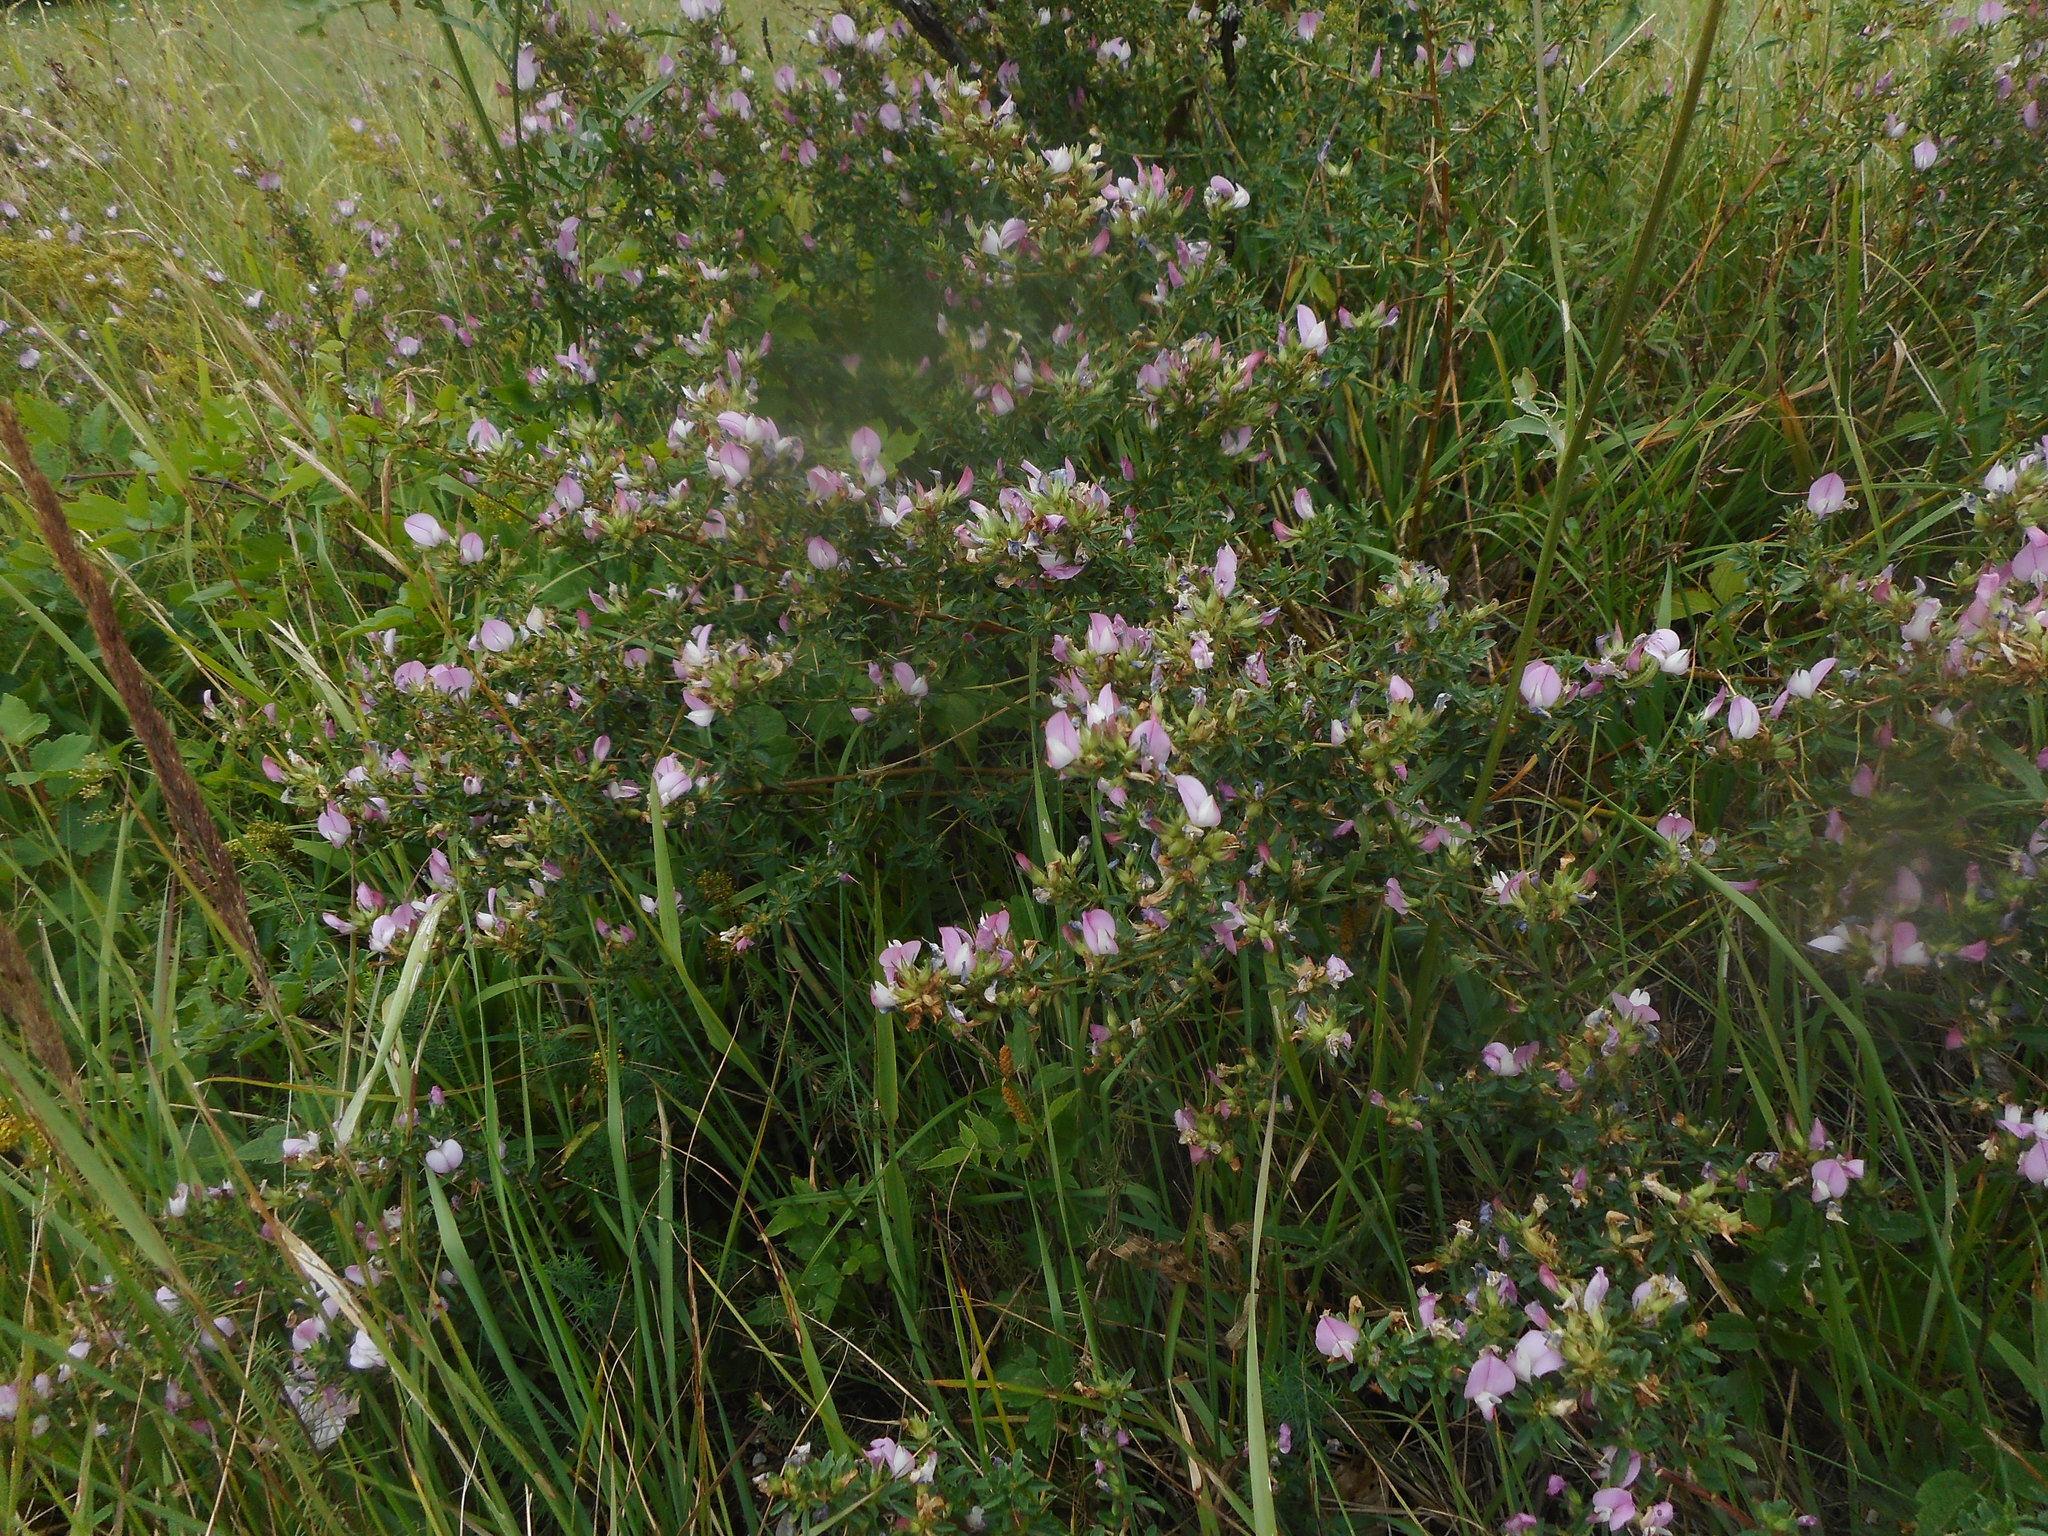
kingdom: Plantae
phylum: Tracheophyta
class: Magnoliopsida
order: Fabales
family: Fabaceae
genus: Ononis
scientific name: Ononis spinosa
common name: Spiny restharrow
